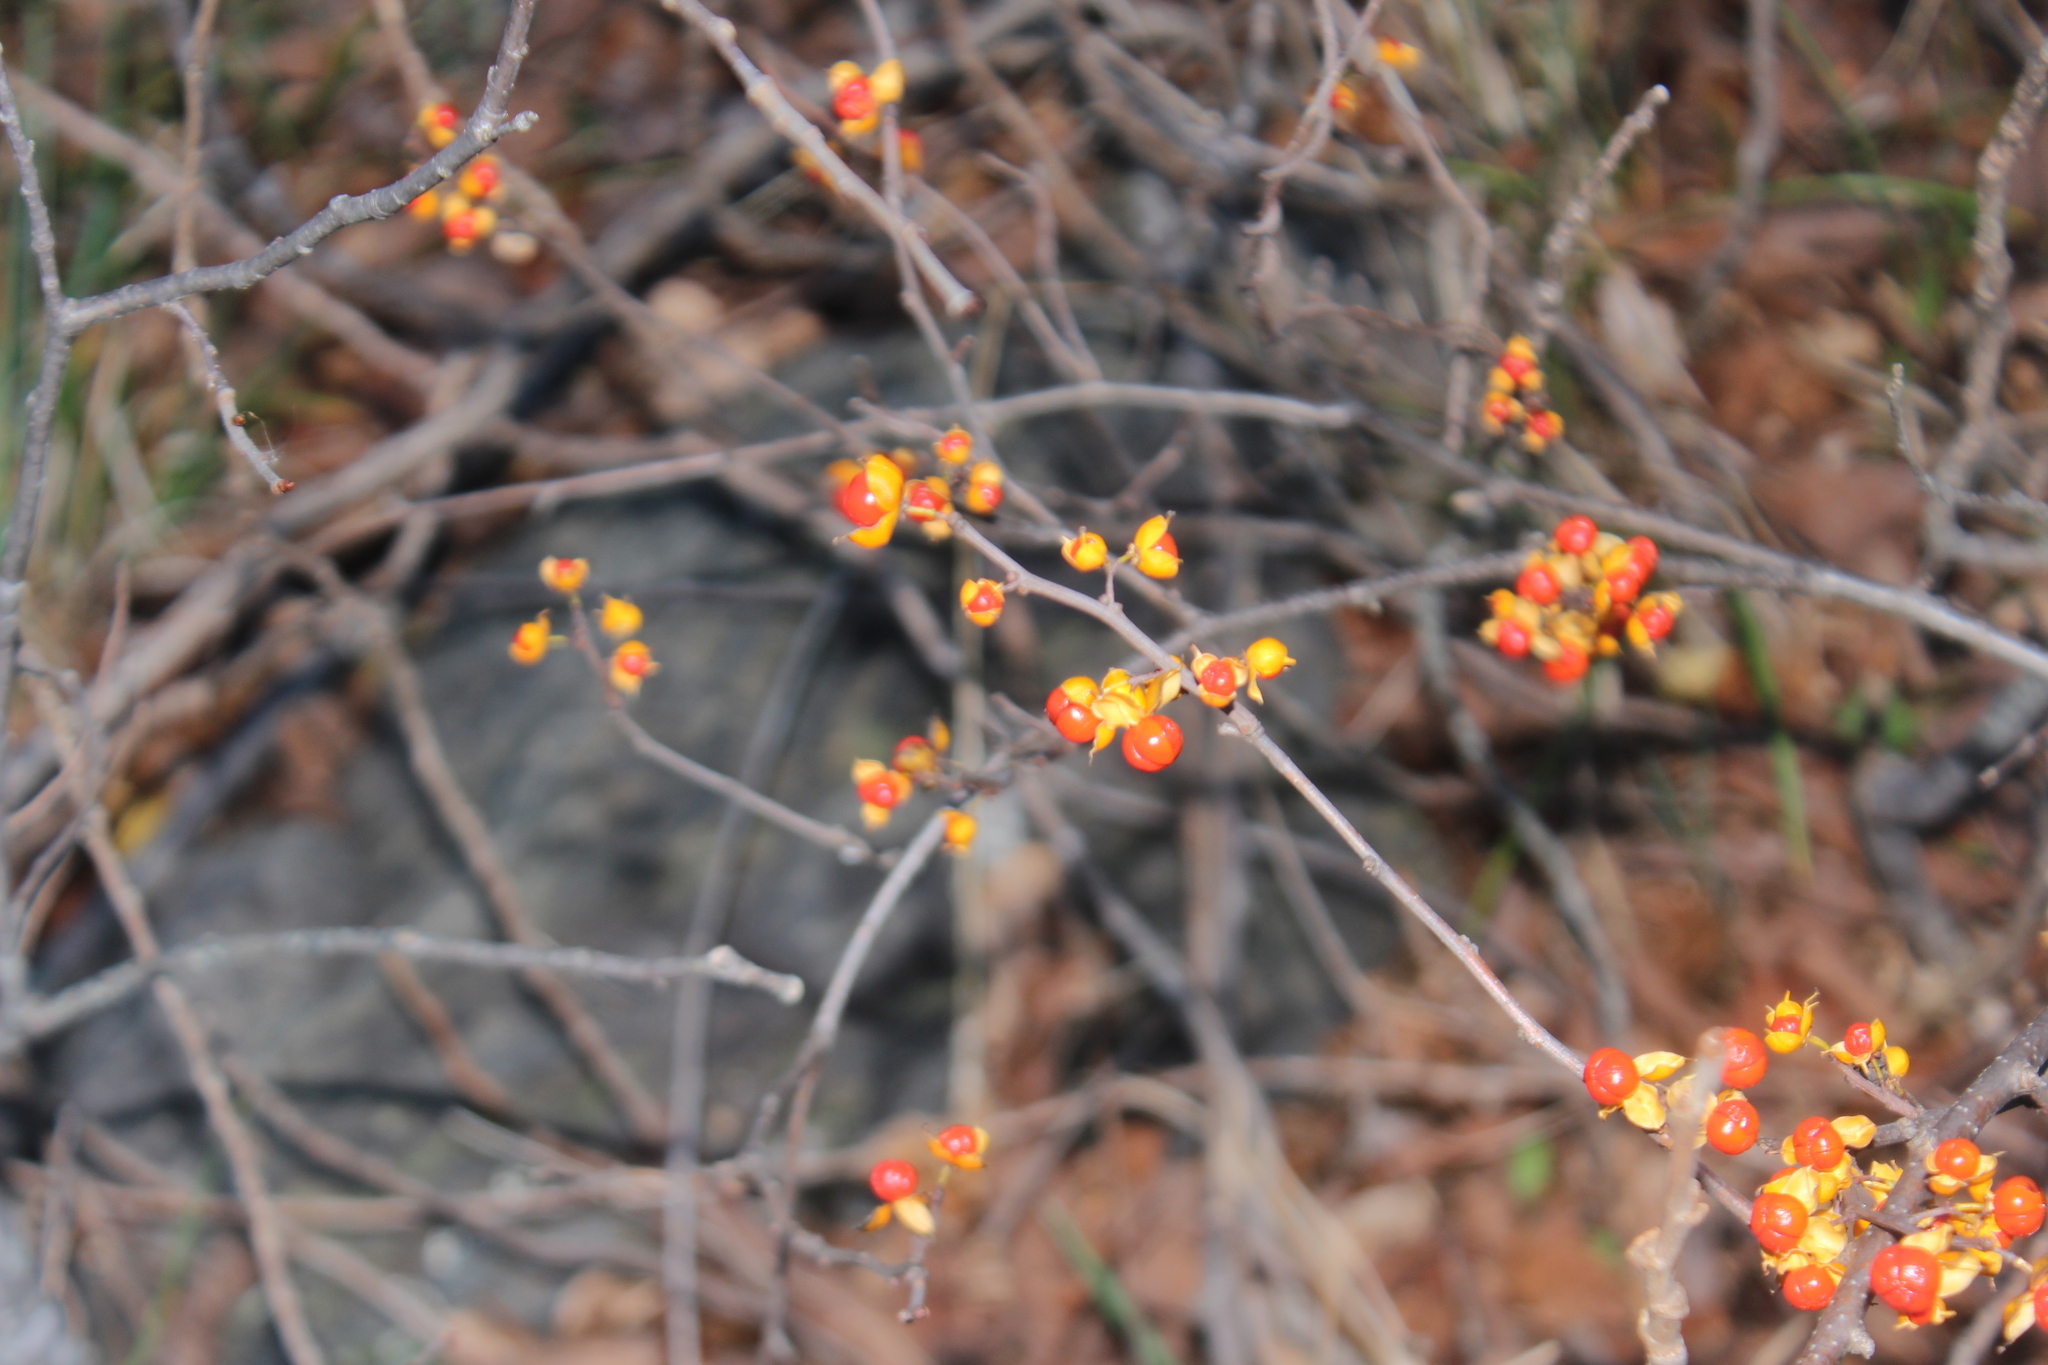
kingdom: Plantae
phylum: Tracheophyta
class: Magnoliopsida
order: Celastrales
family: Celastraceae
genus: Celastrus
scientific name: Celastrus orbiculatus
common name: Oriental bittersweet
